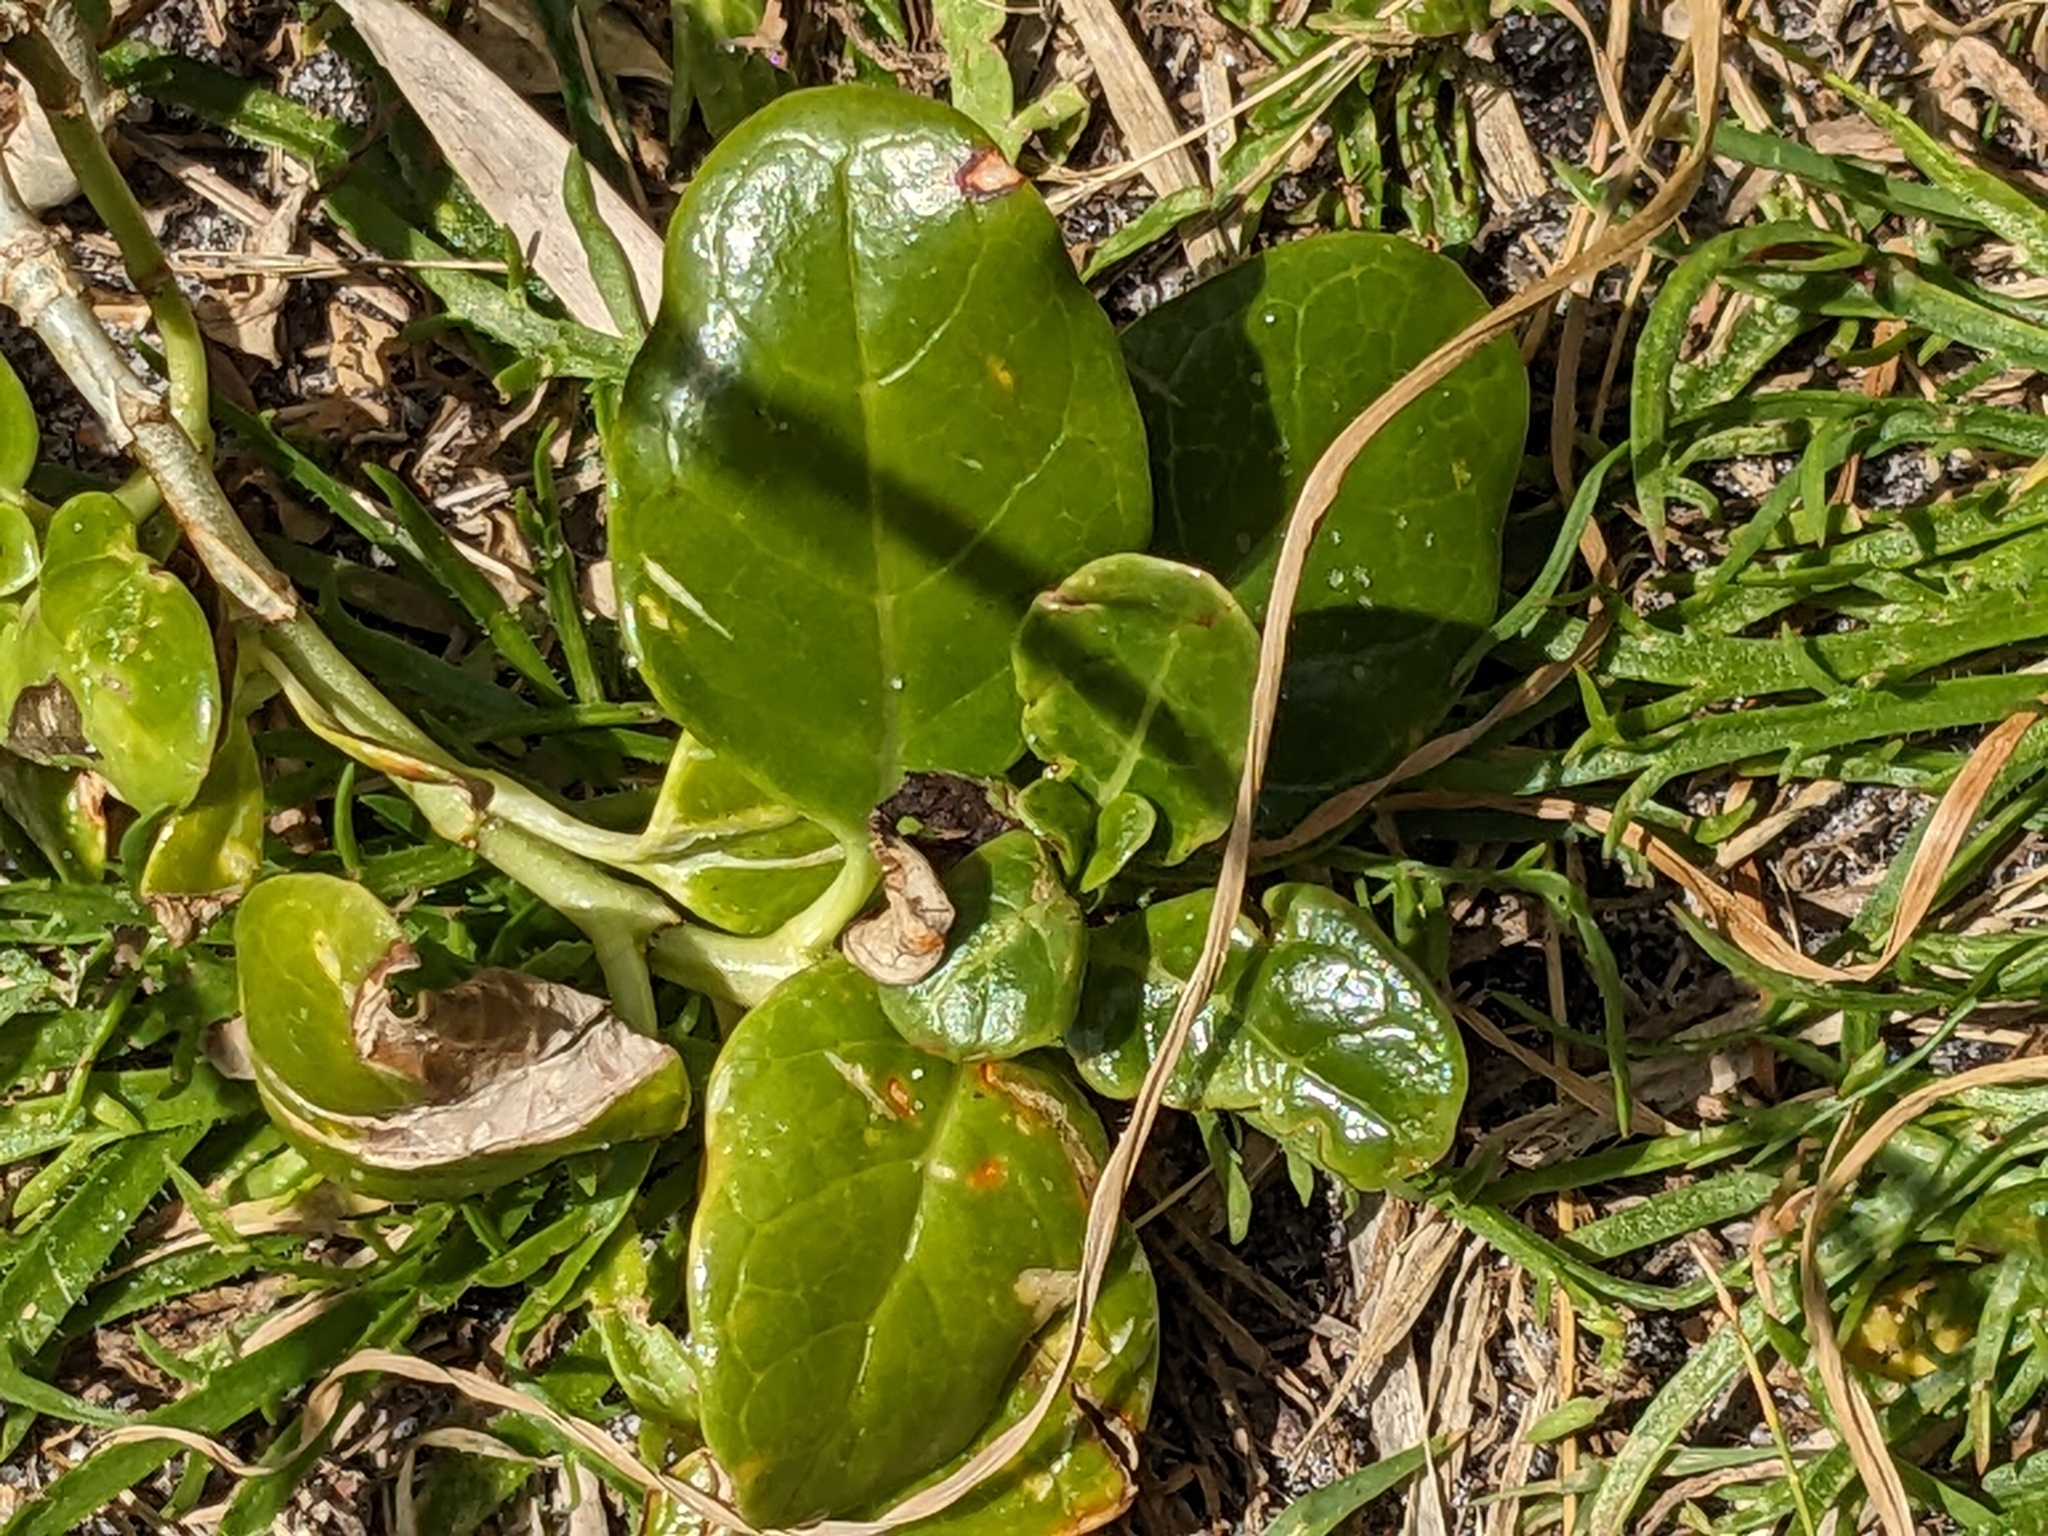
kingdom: Plantae
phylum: Tracheophyta
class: Magnoliopsida
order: Gentianales
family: Rubiaceae
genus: Coprosma
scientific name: Coprosma repens
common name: Tree bedstraw
